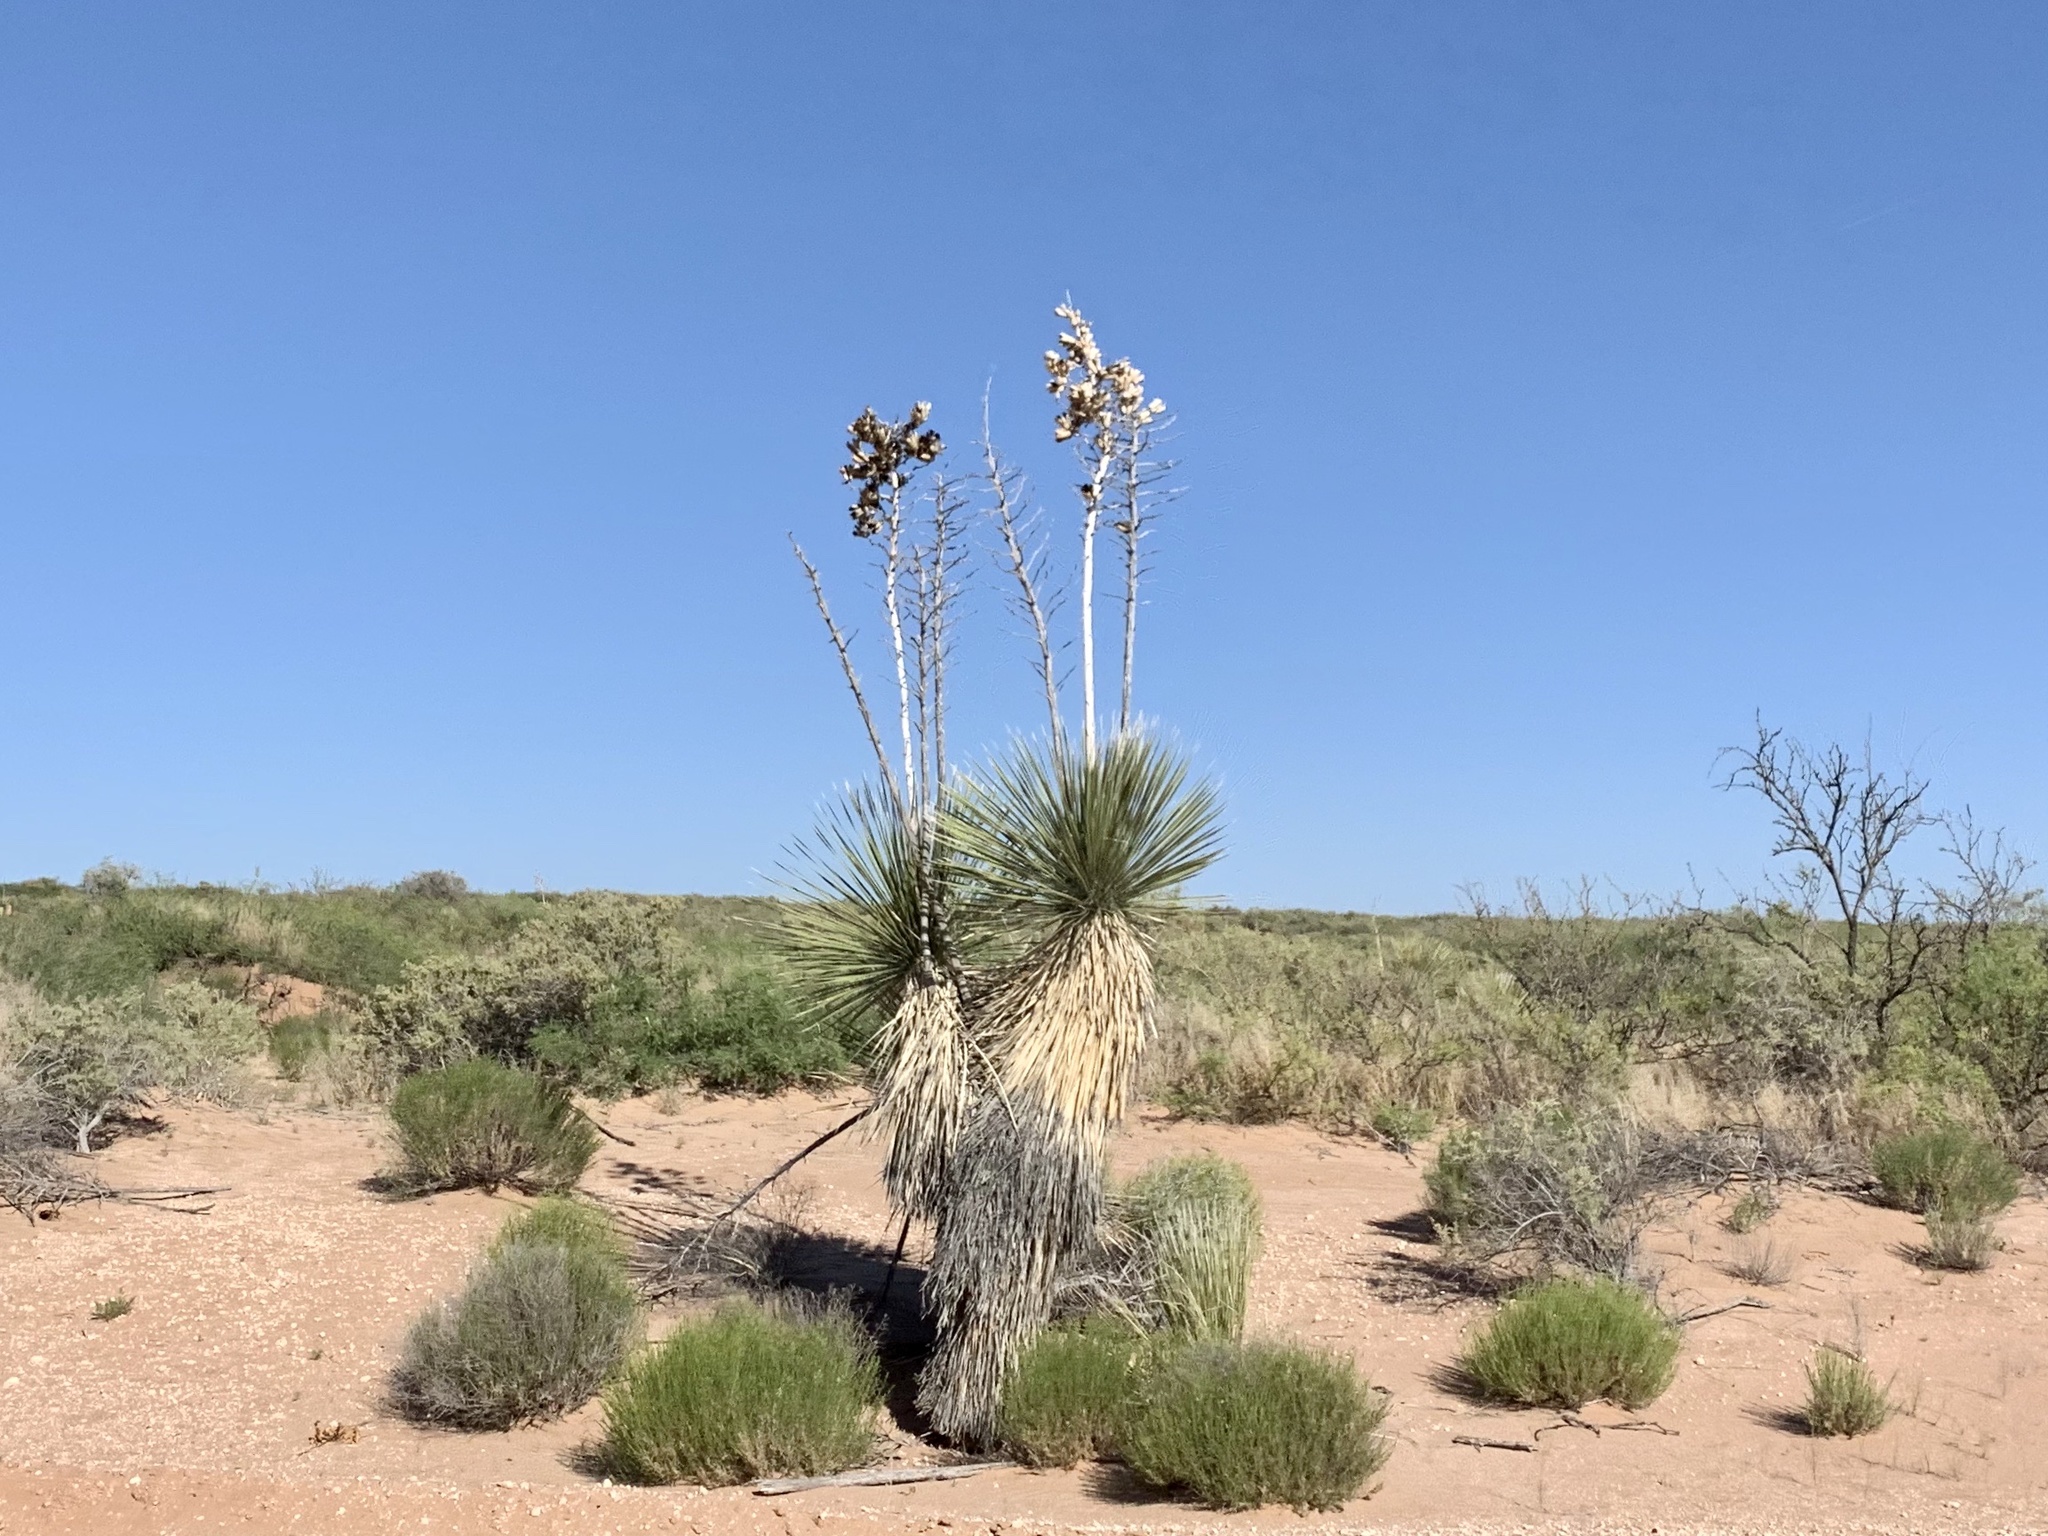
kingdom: Plantae
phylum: Tracheophyta
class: Liliopsida
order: Asparagales
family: Asparagaceae
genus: Yucca
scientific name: Yucca elata
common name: Palmella
